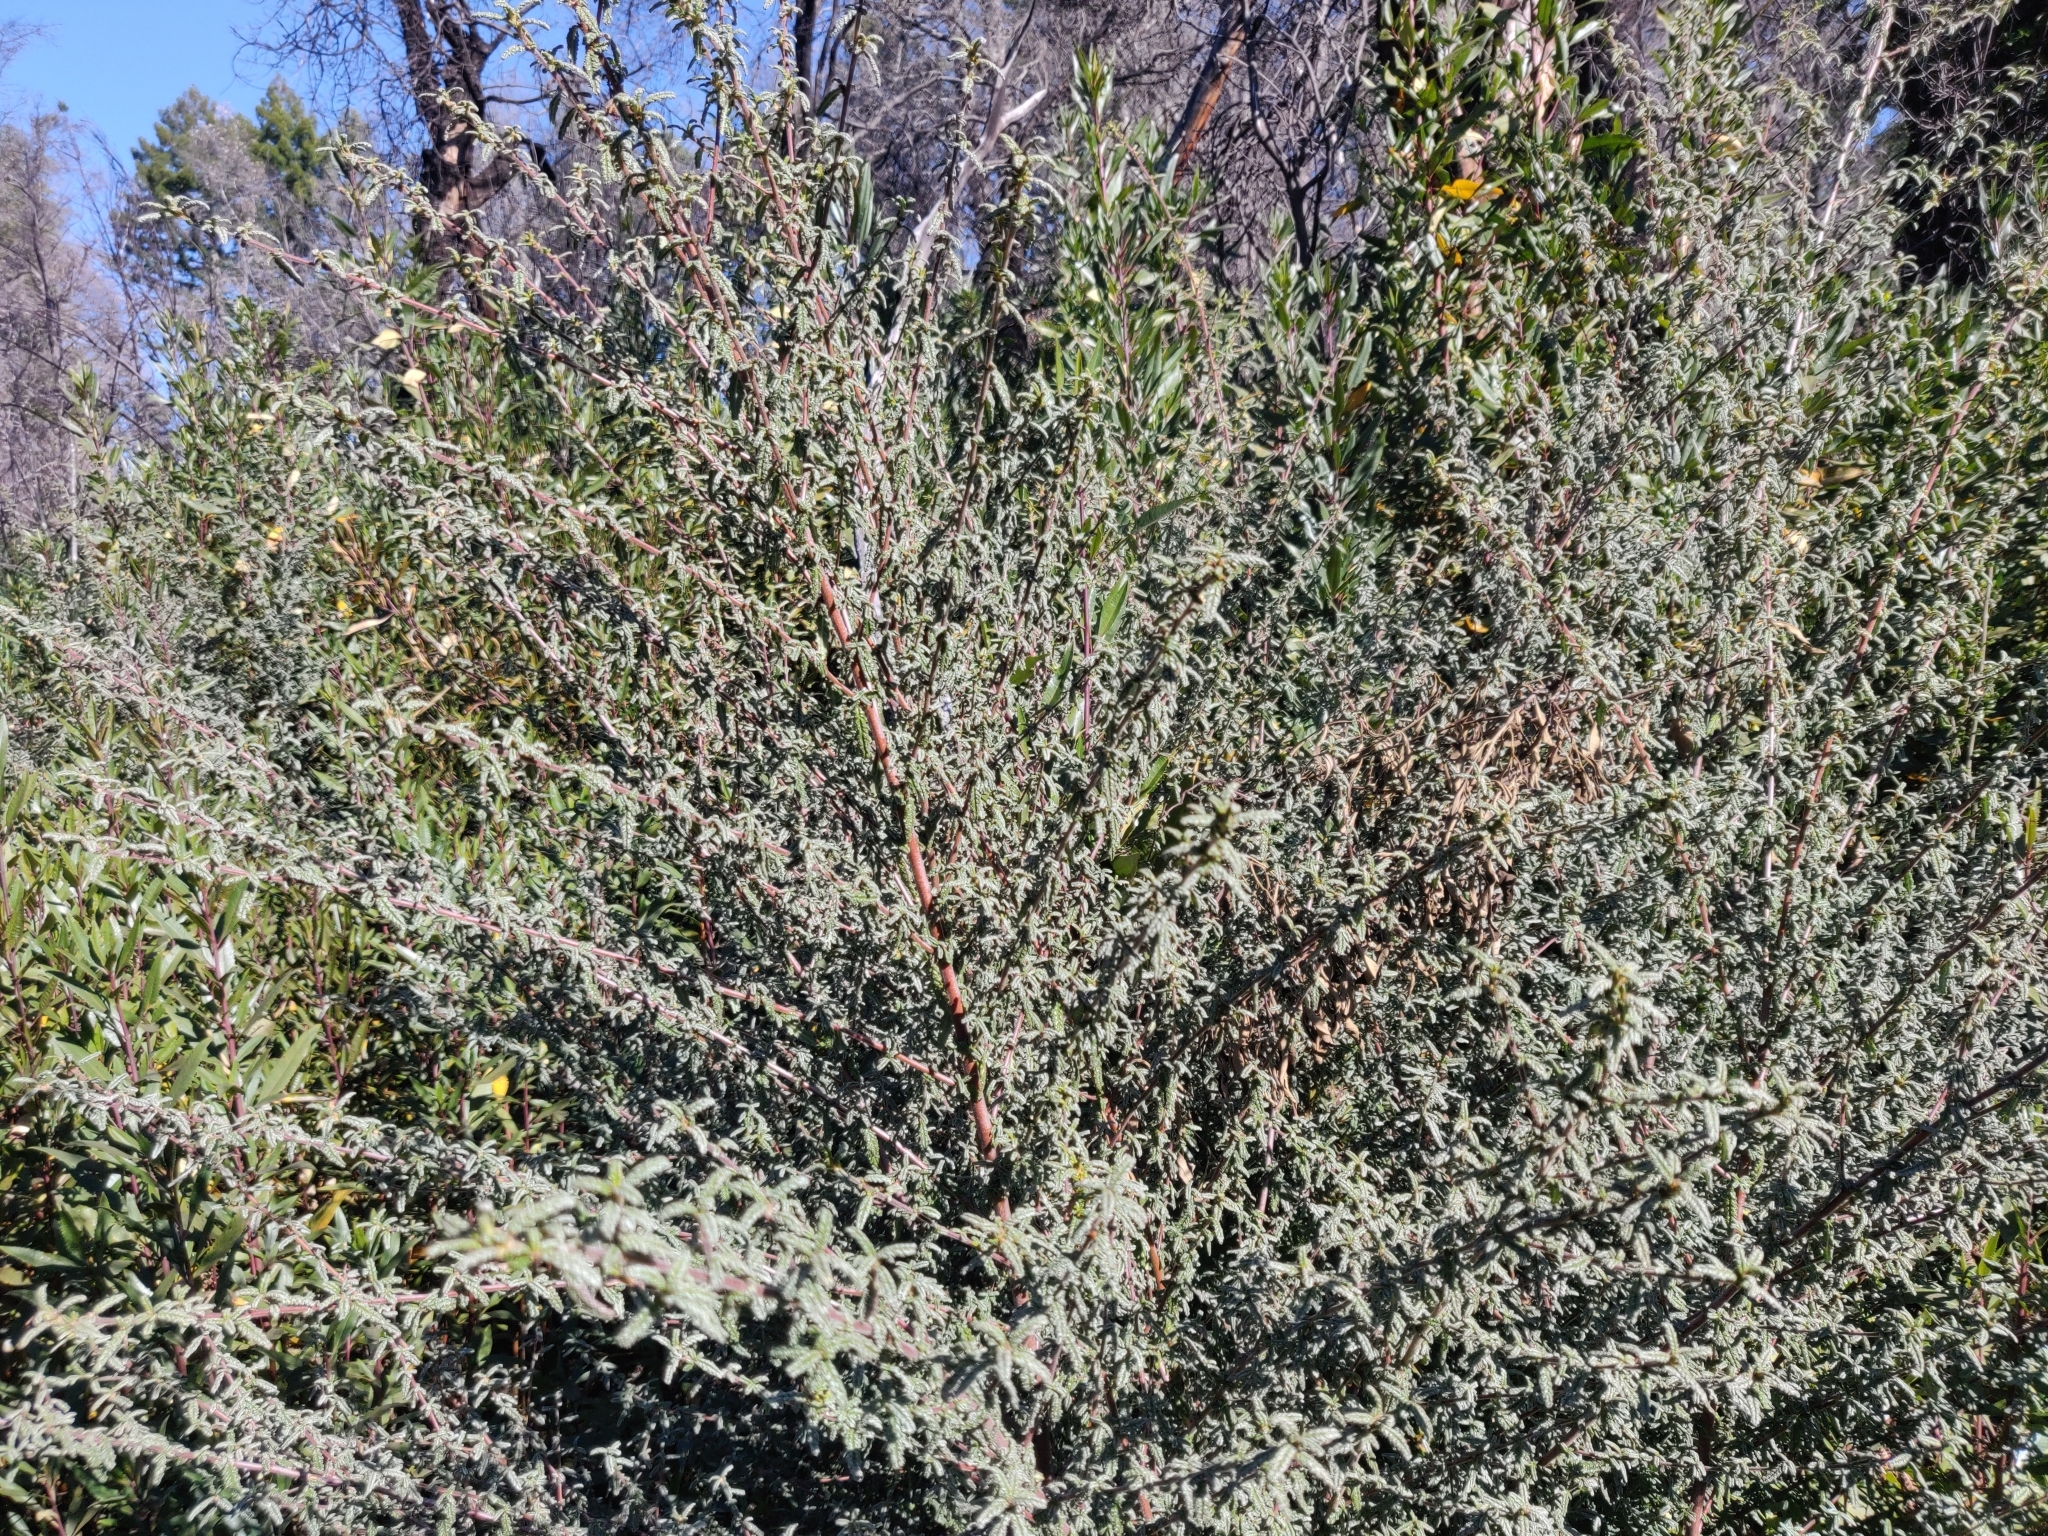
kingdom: Plantae
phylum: Tracheophyta
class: Magnoliopsida
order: Rosales
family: Rhamnaceae
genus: Ceanothus
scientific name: Ceanothus papillosus
